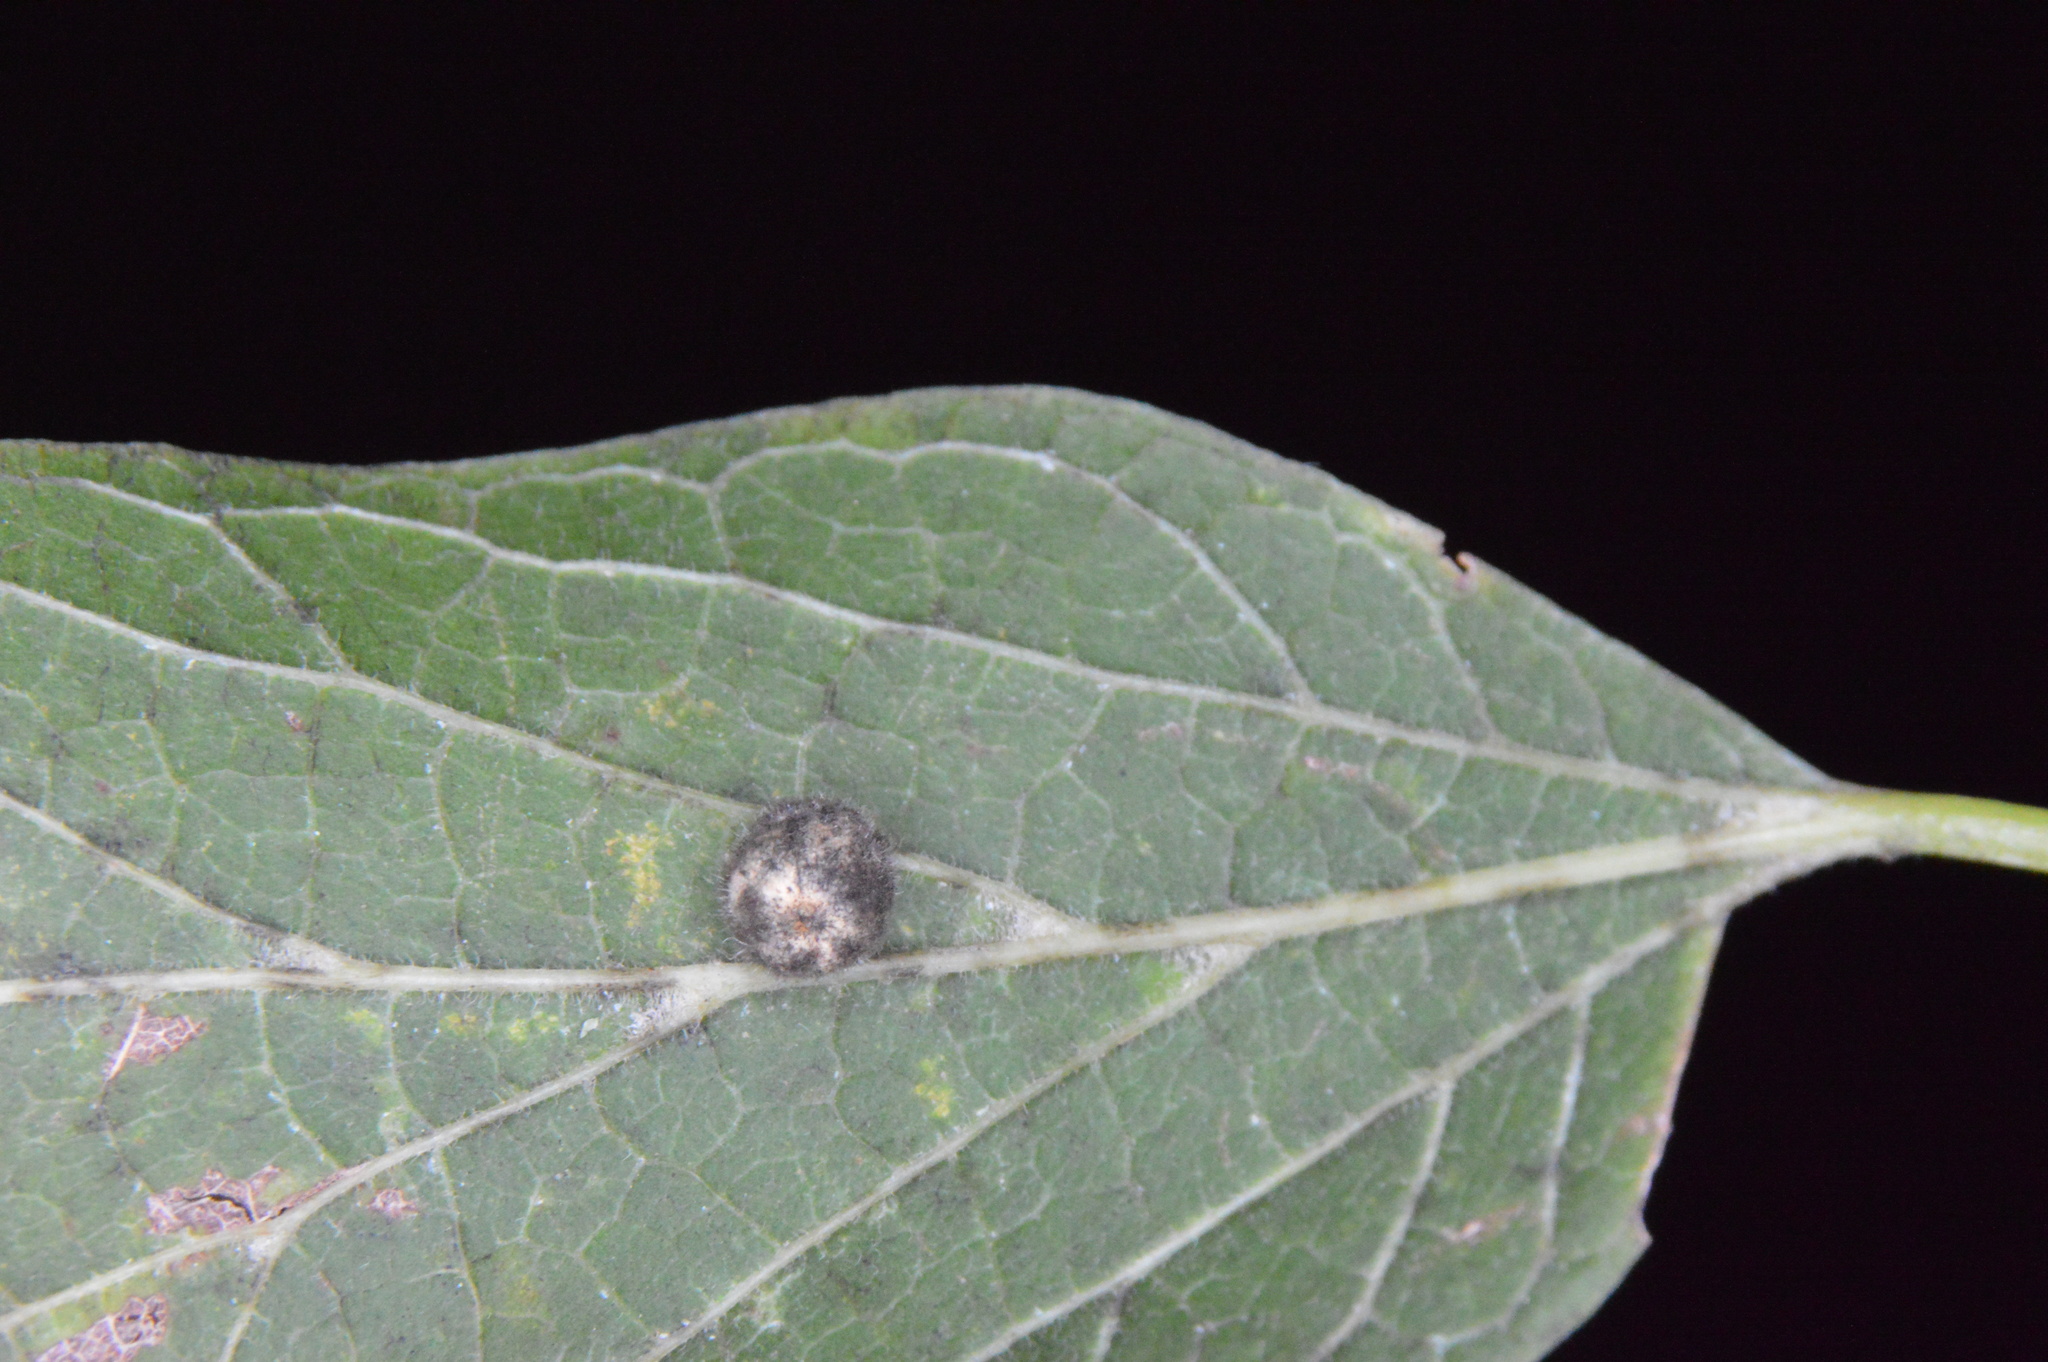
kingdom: Animalia
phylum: Arthropoda
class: Insecta
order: Diptera
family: Cecidomyiidae
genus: Celticecis
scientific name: Celticecis pubescens
